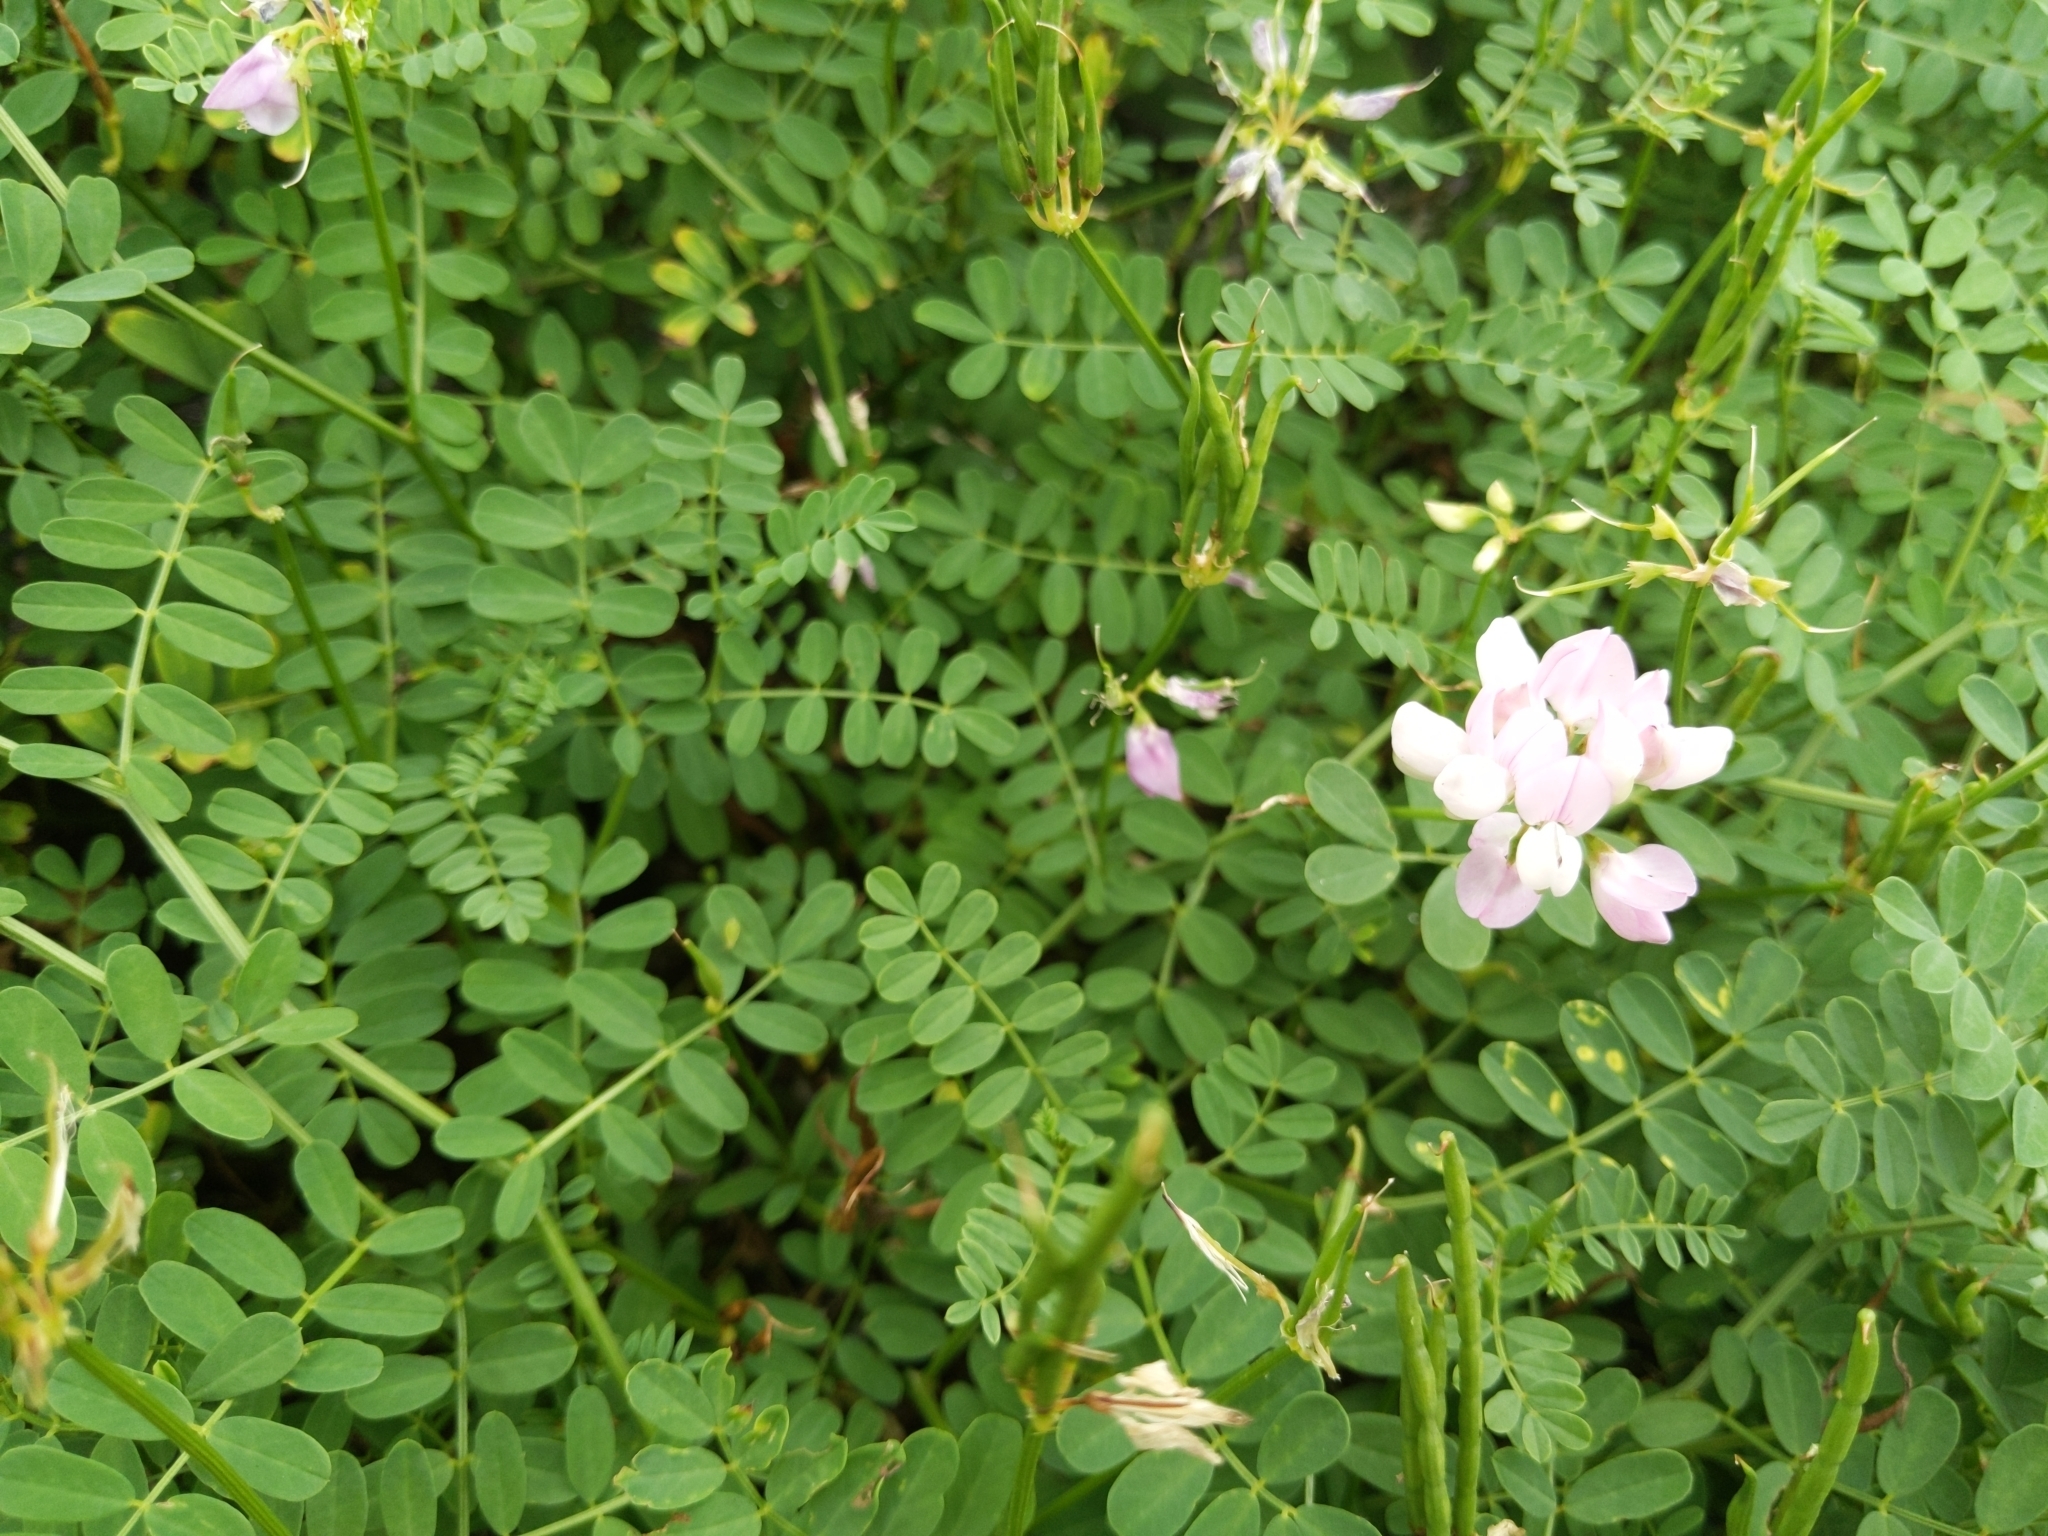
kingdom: Plantae
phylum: Tracheophyta
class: Magnoliopsida
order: Fabales
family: Fabaceae
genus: Coronilla
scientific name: Coronilla varia
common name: Crownvetch
